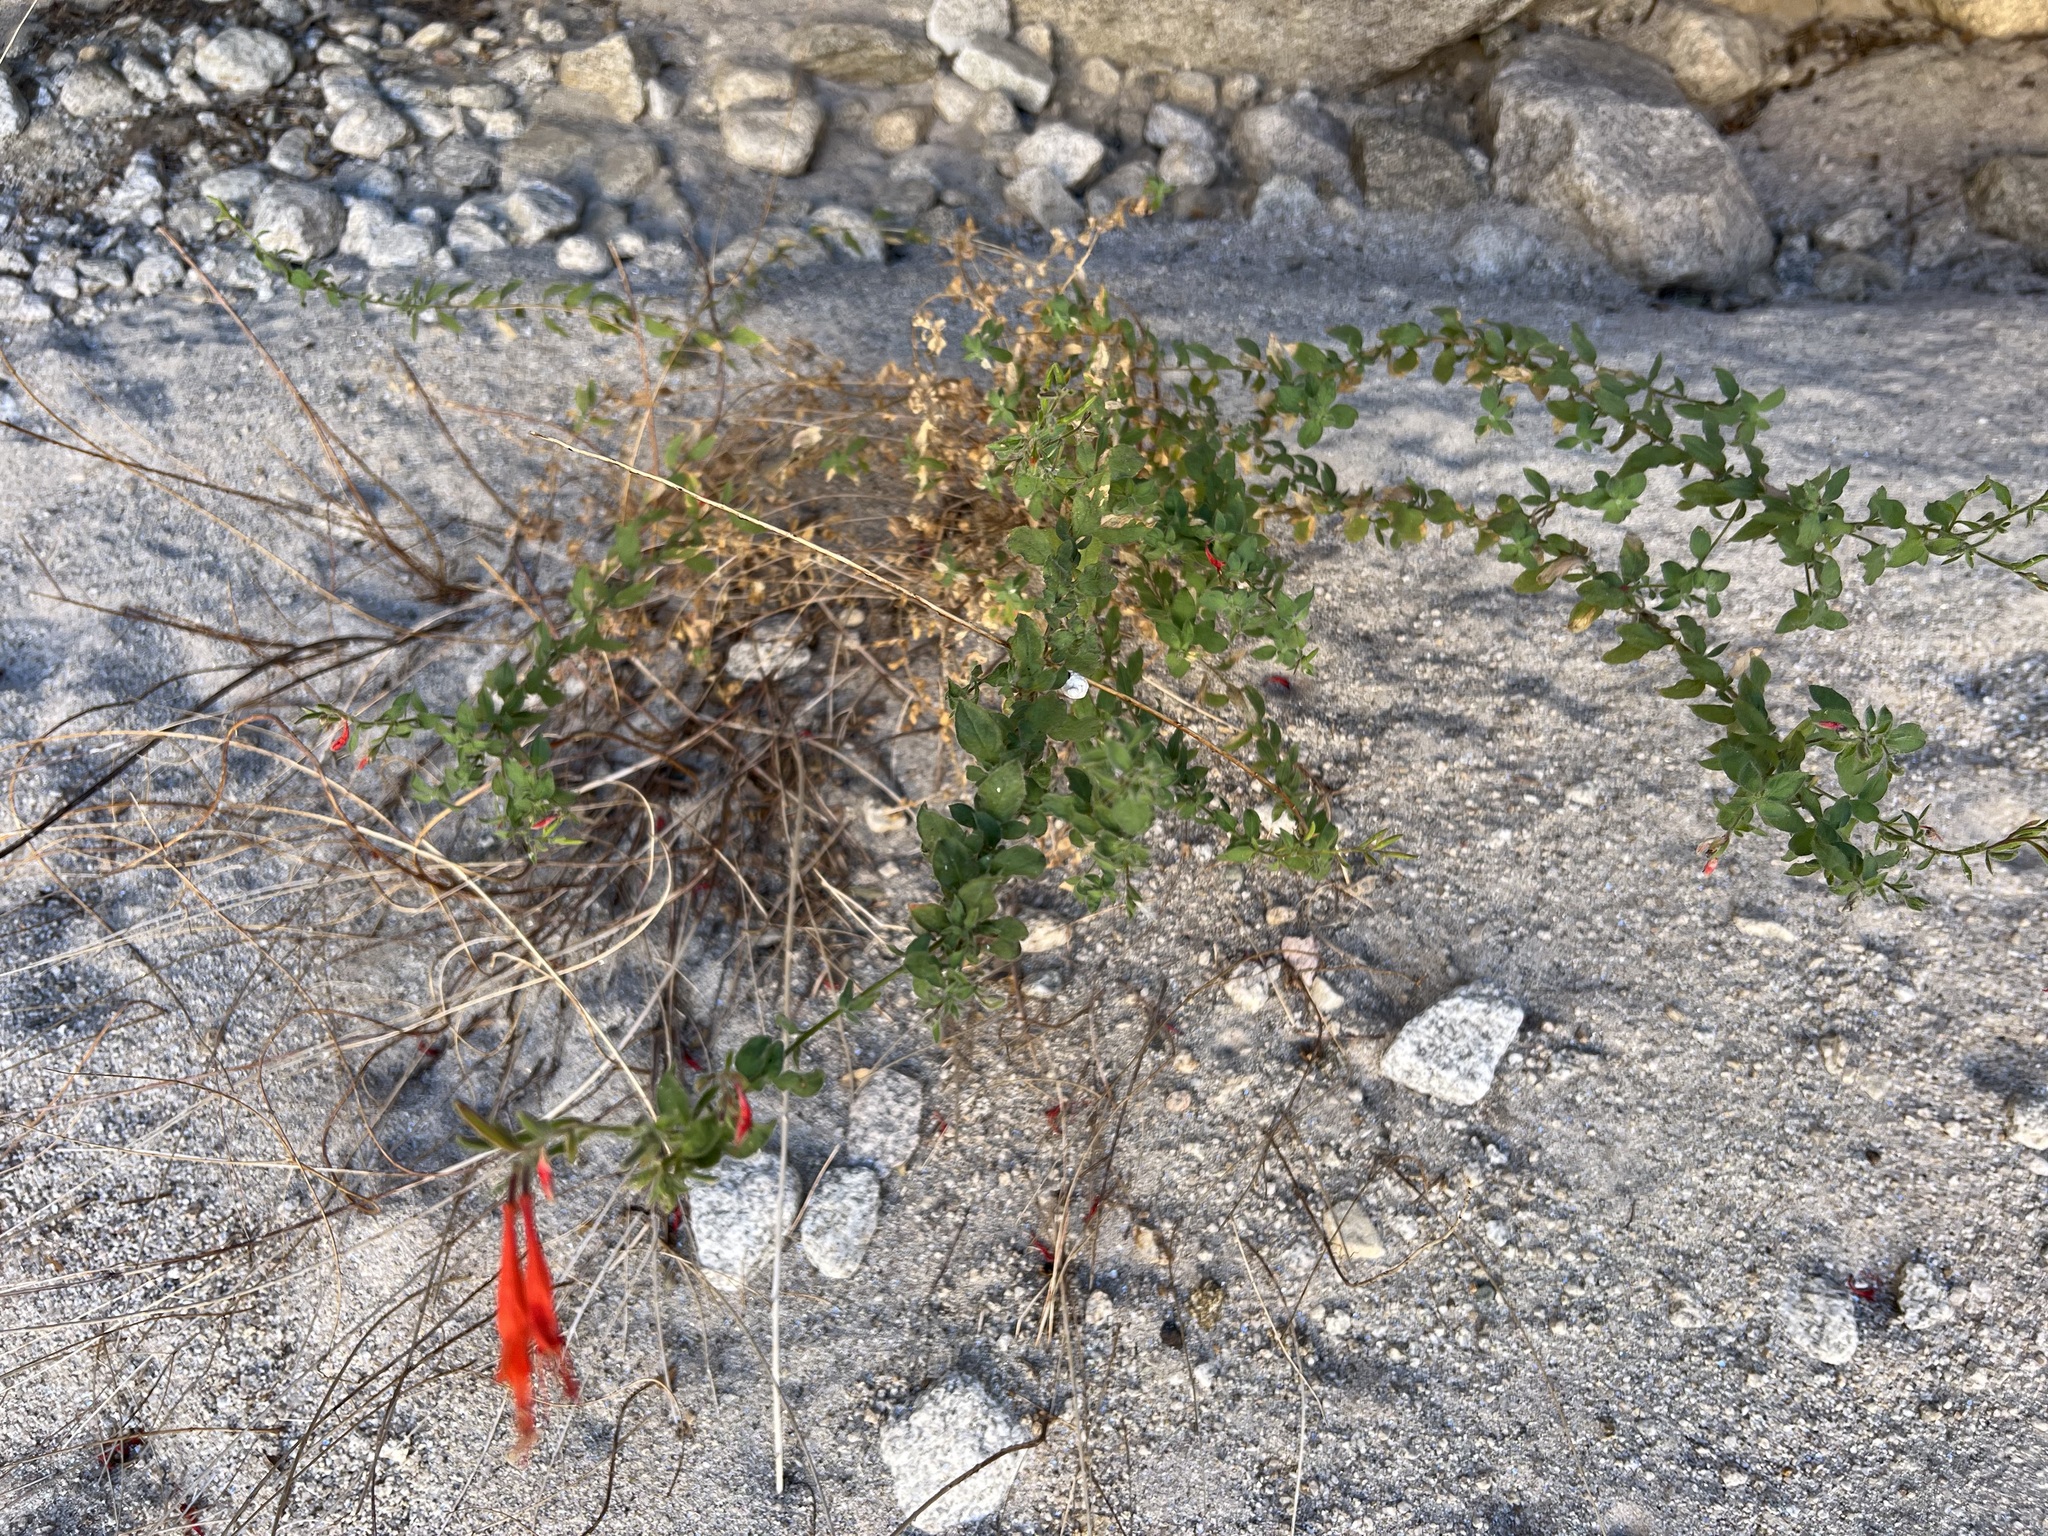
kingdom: Plantae
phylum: Tracheophyta
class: Magnoliopsida
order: Myrtales
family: Onagraceae
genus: Epilobium
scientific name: Epilobium canum
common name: California-fuchsia
